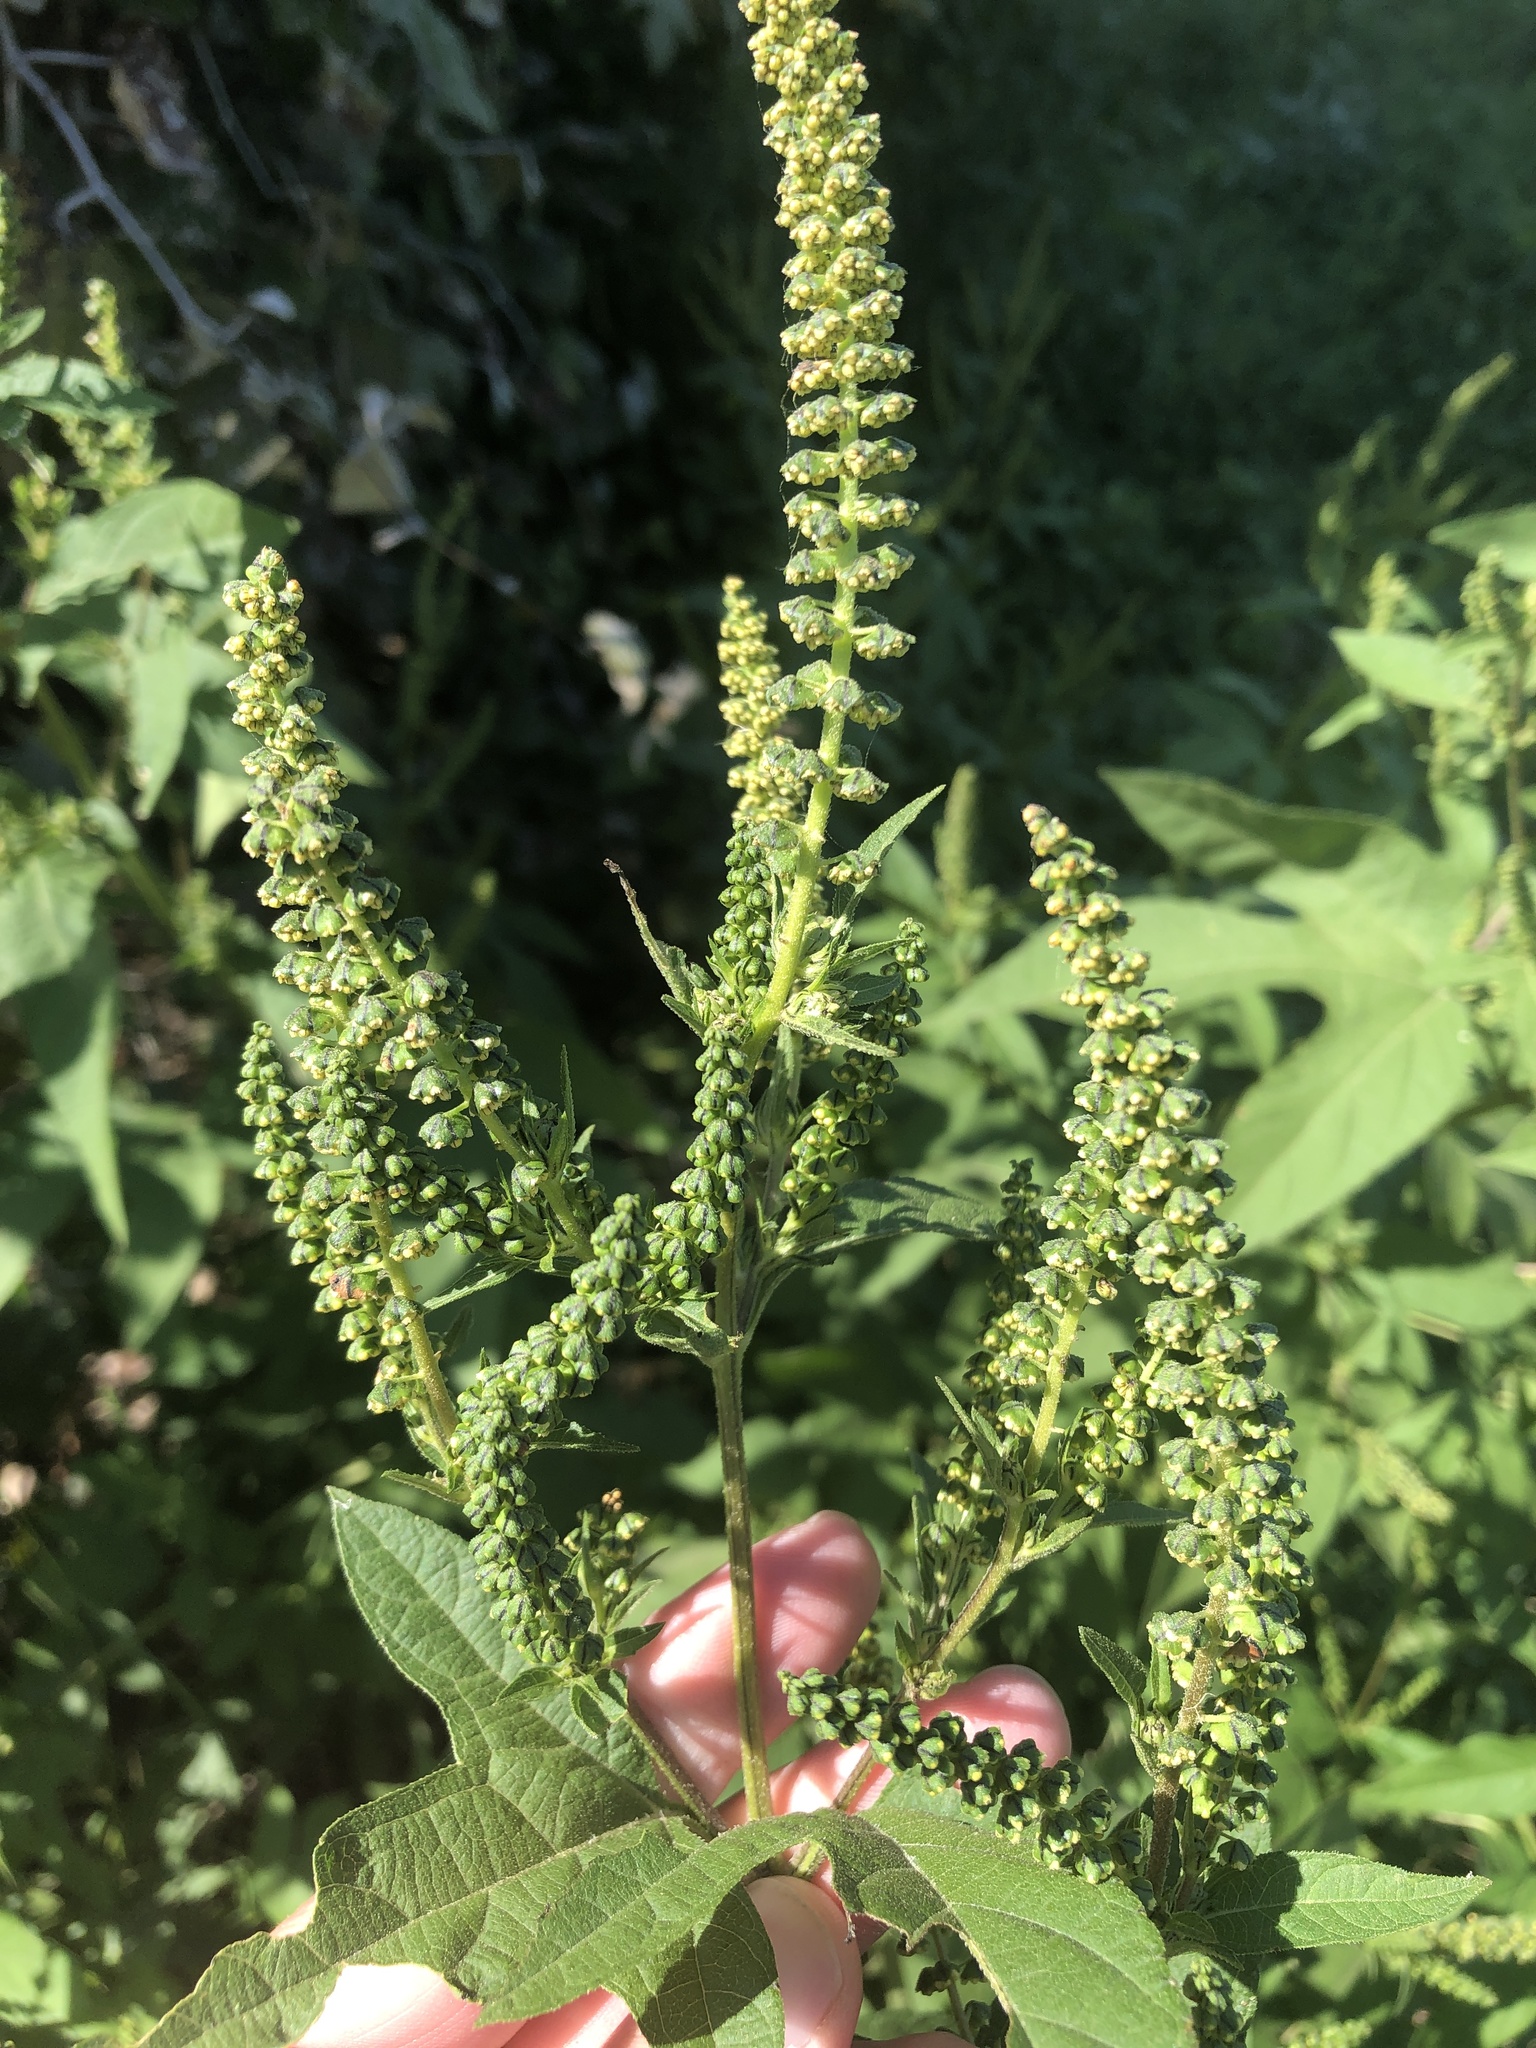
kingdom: Plantae
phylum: Tracheophyta
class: Magnoliopsida
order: Asterales
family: Asteraceae
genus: Ambrosia
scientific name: Ambrosia trifida
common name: Giant ragweed
